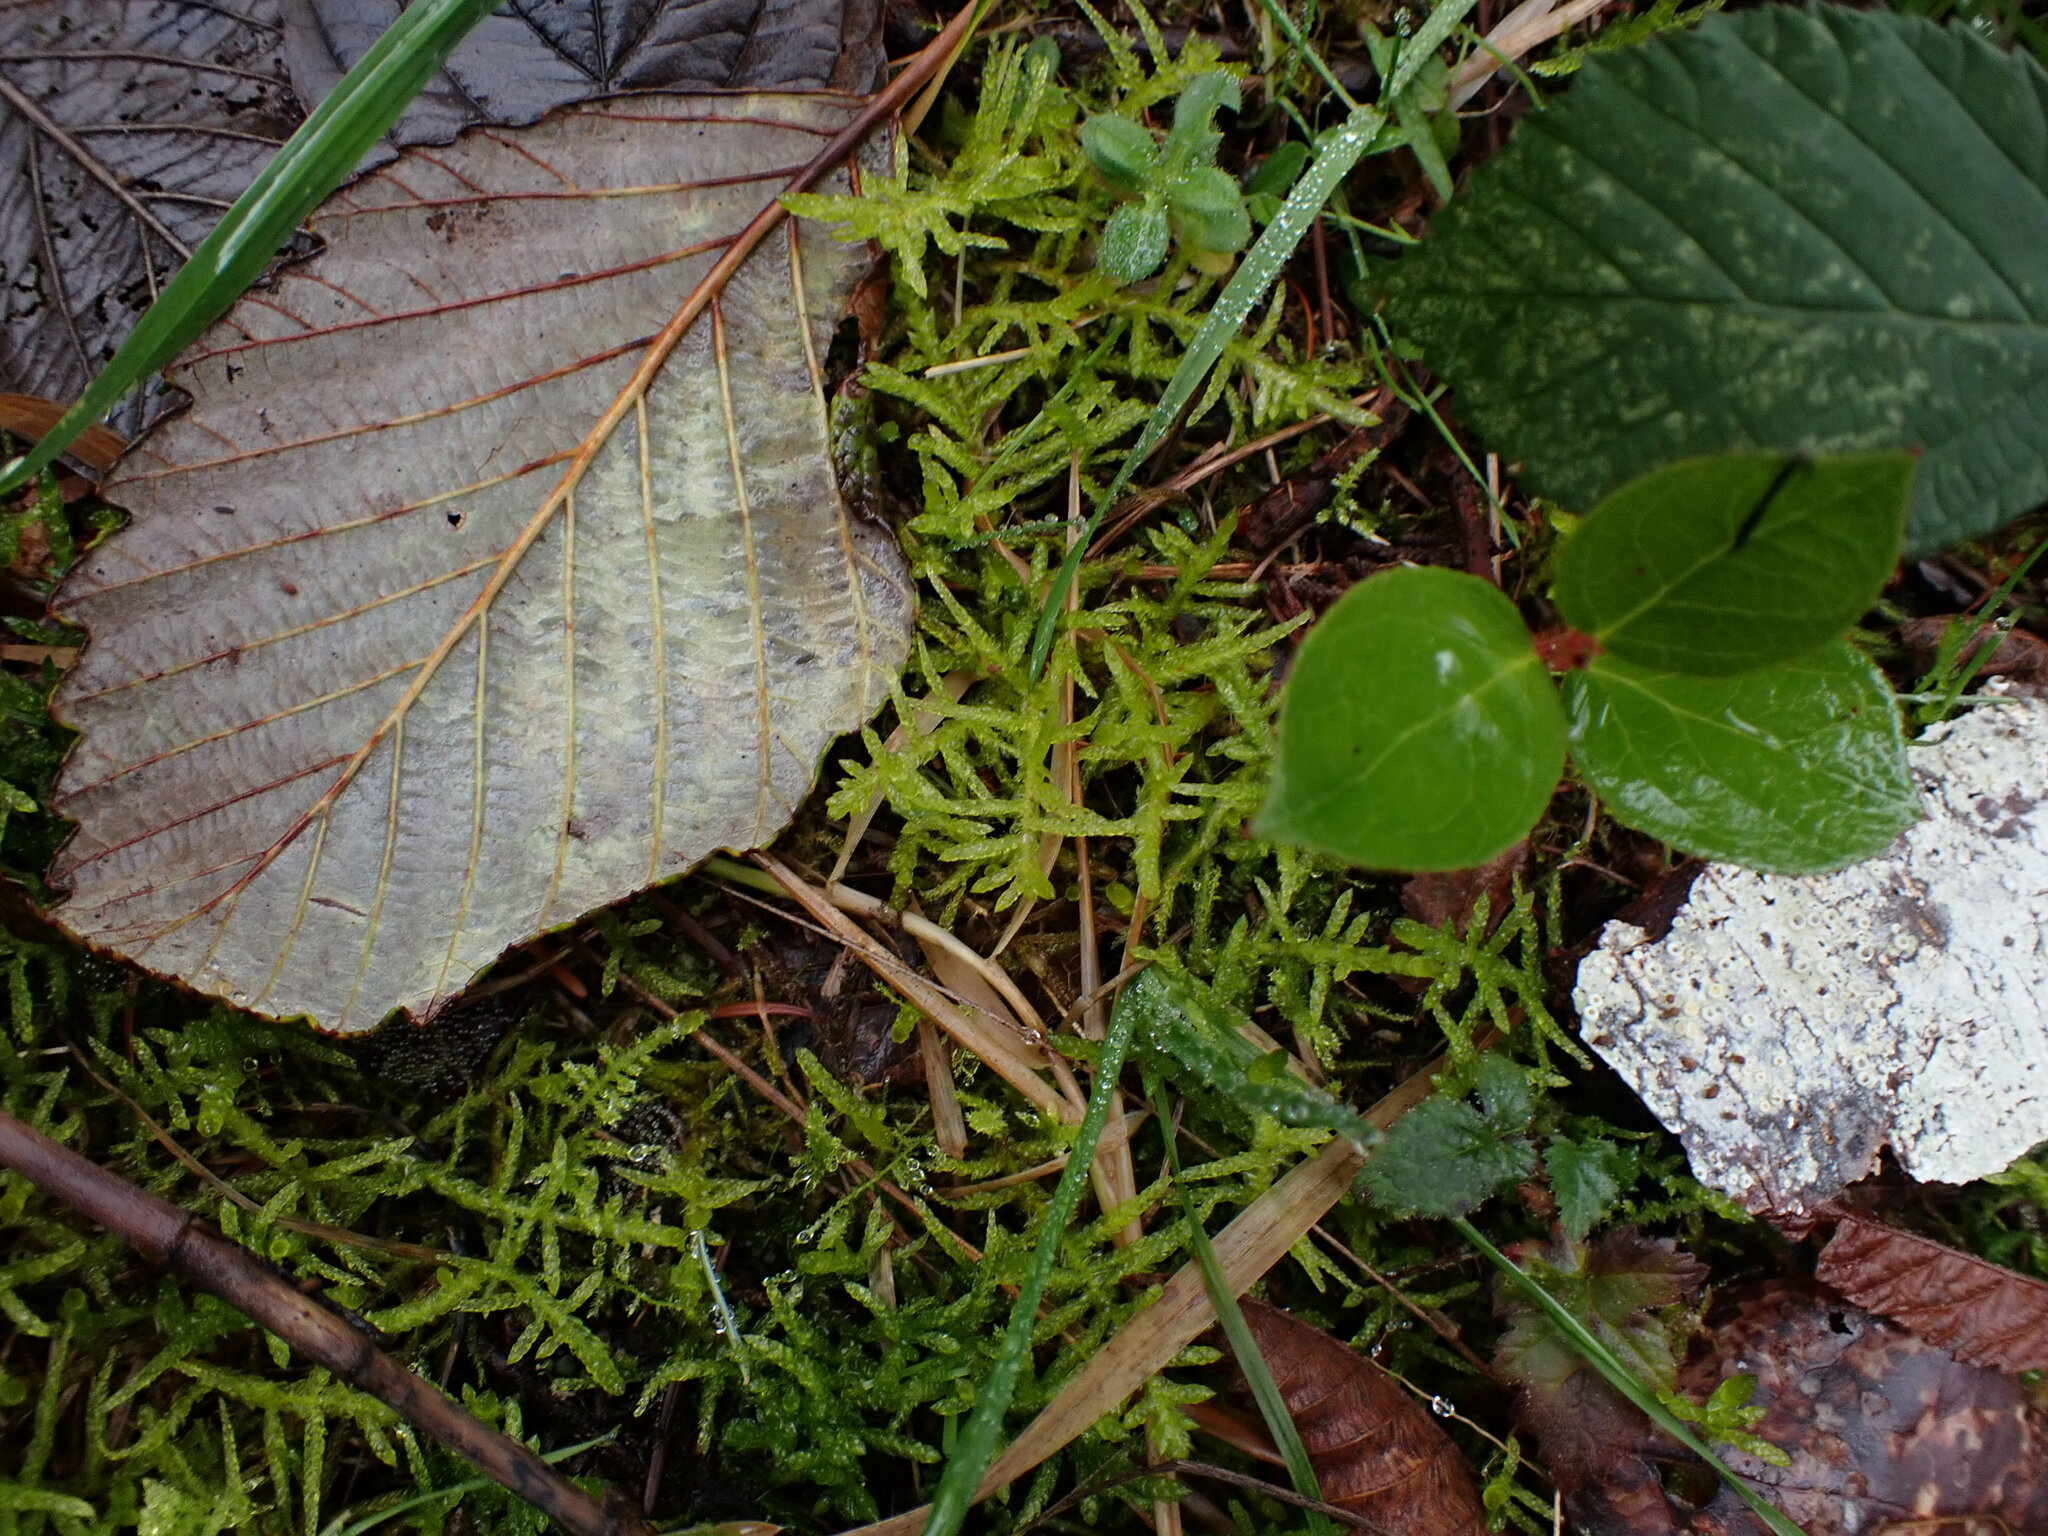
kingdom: Plantae
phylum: Bryophyta
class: Bryopsida
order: Hypnales
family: Brachytheciaceae
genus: Pseudoscleropodium
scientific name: Pseudoscleropodium purum
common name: Neat feather-moss
